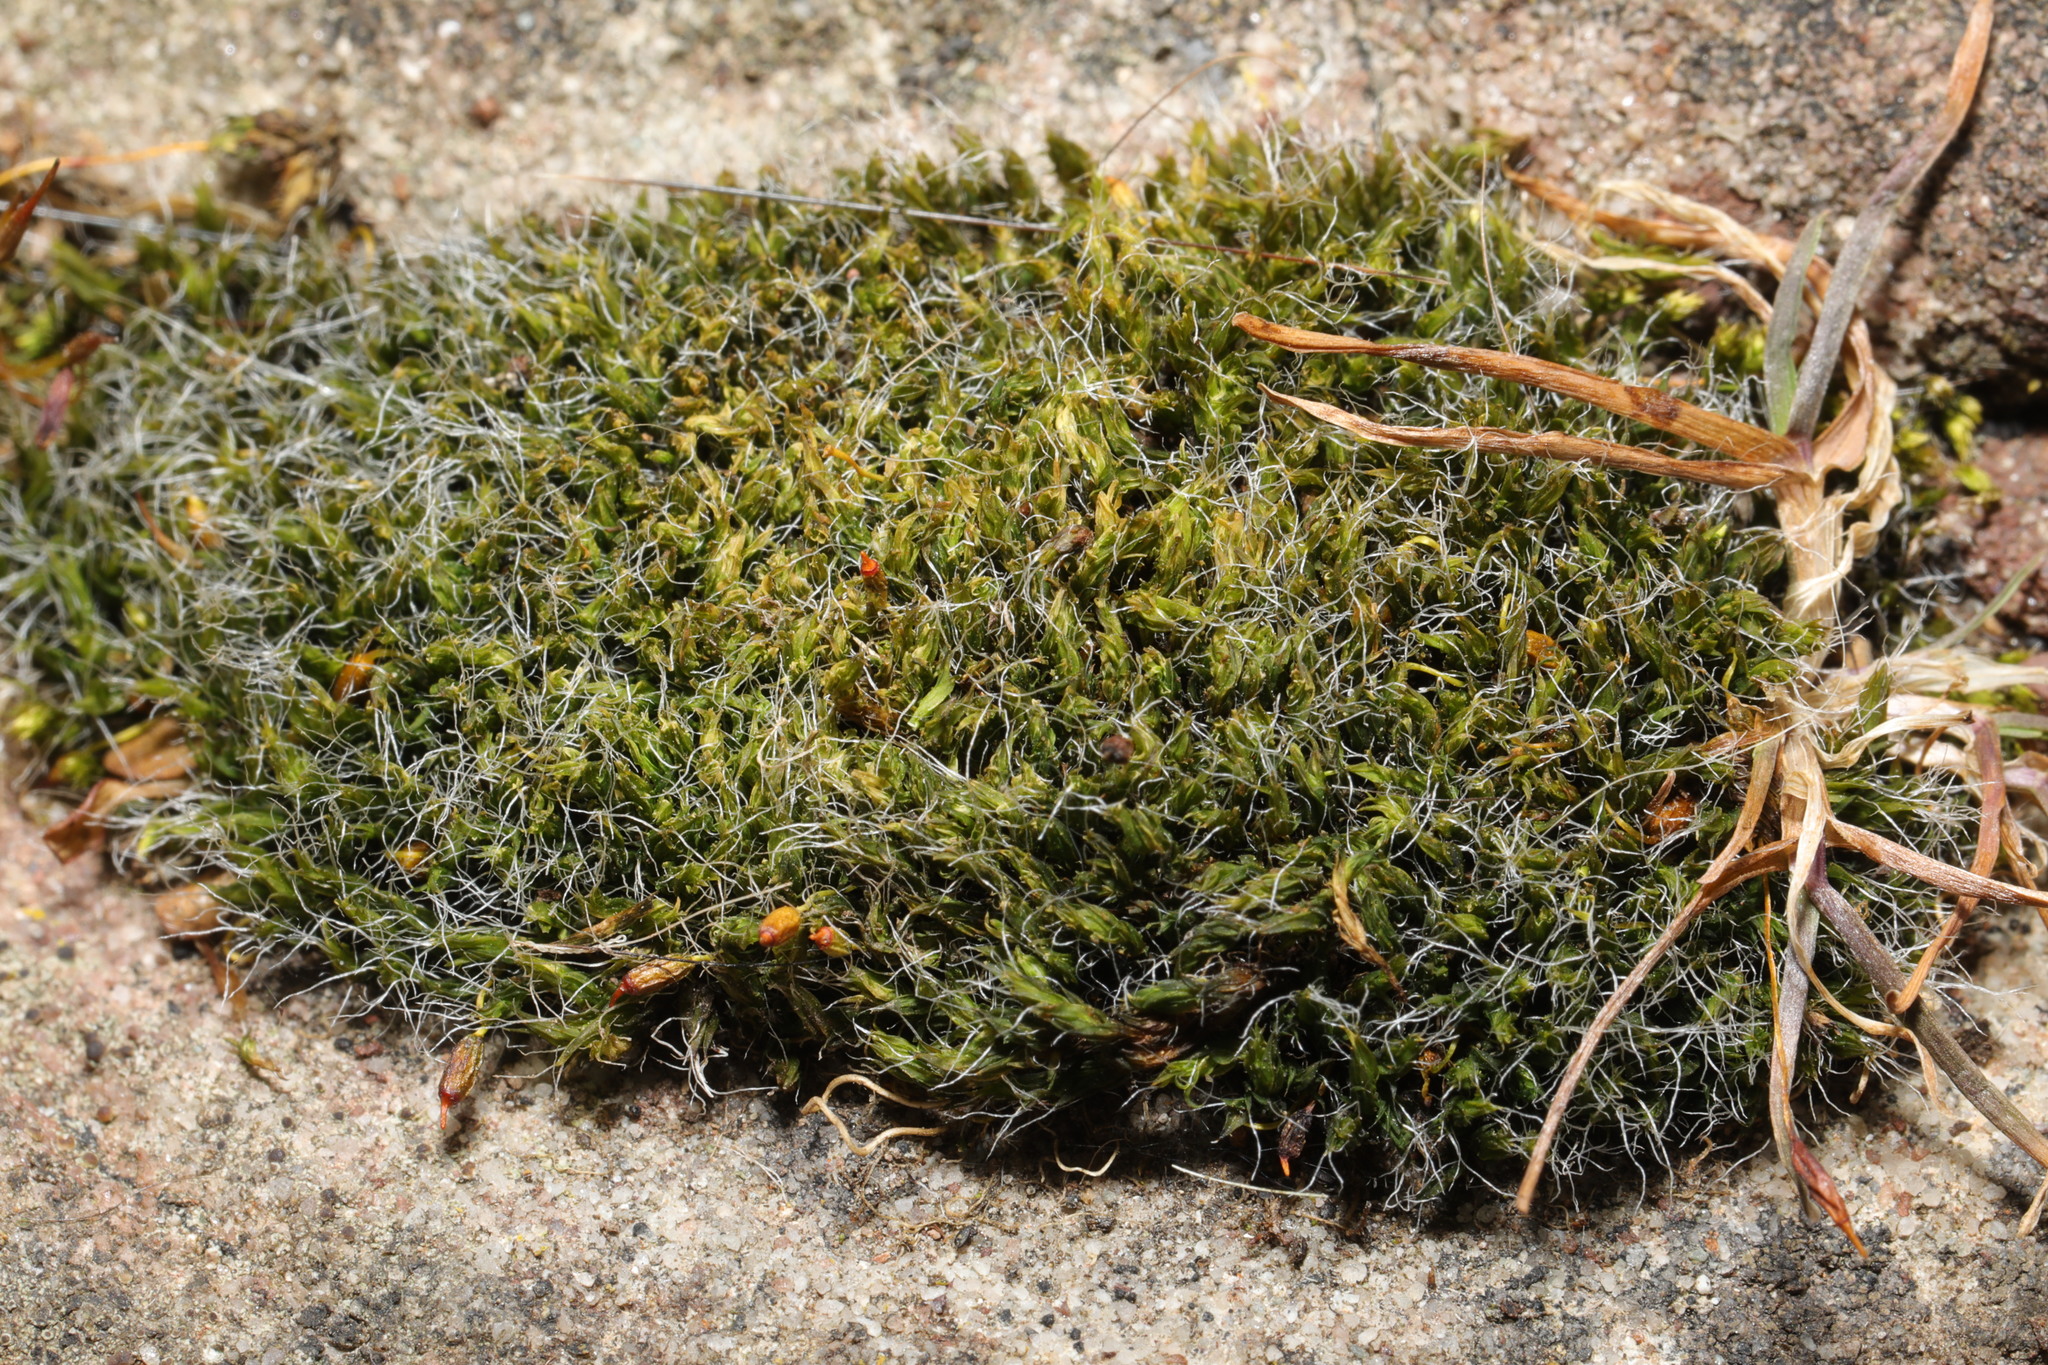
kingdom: Plantae
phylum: Bryophyta
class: Bryopsida
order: Grimmiales
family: Grimmiaceae
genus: Grimmia
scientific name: Grimmia pulvinata
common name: Grey-cushioned grimmia
